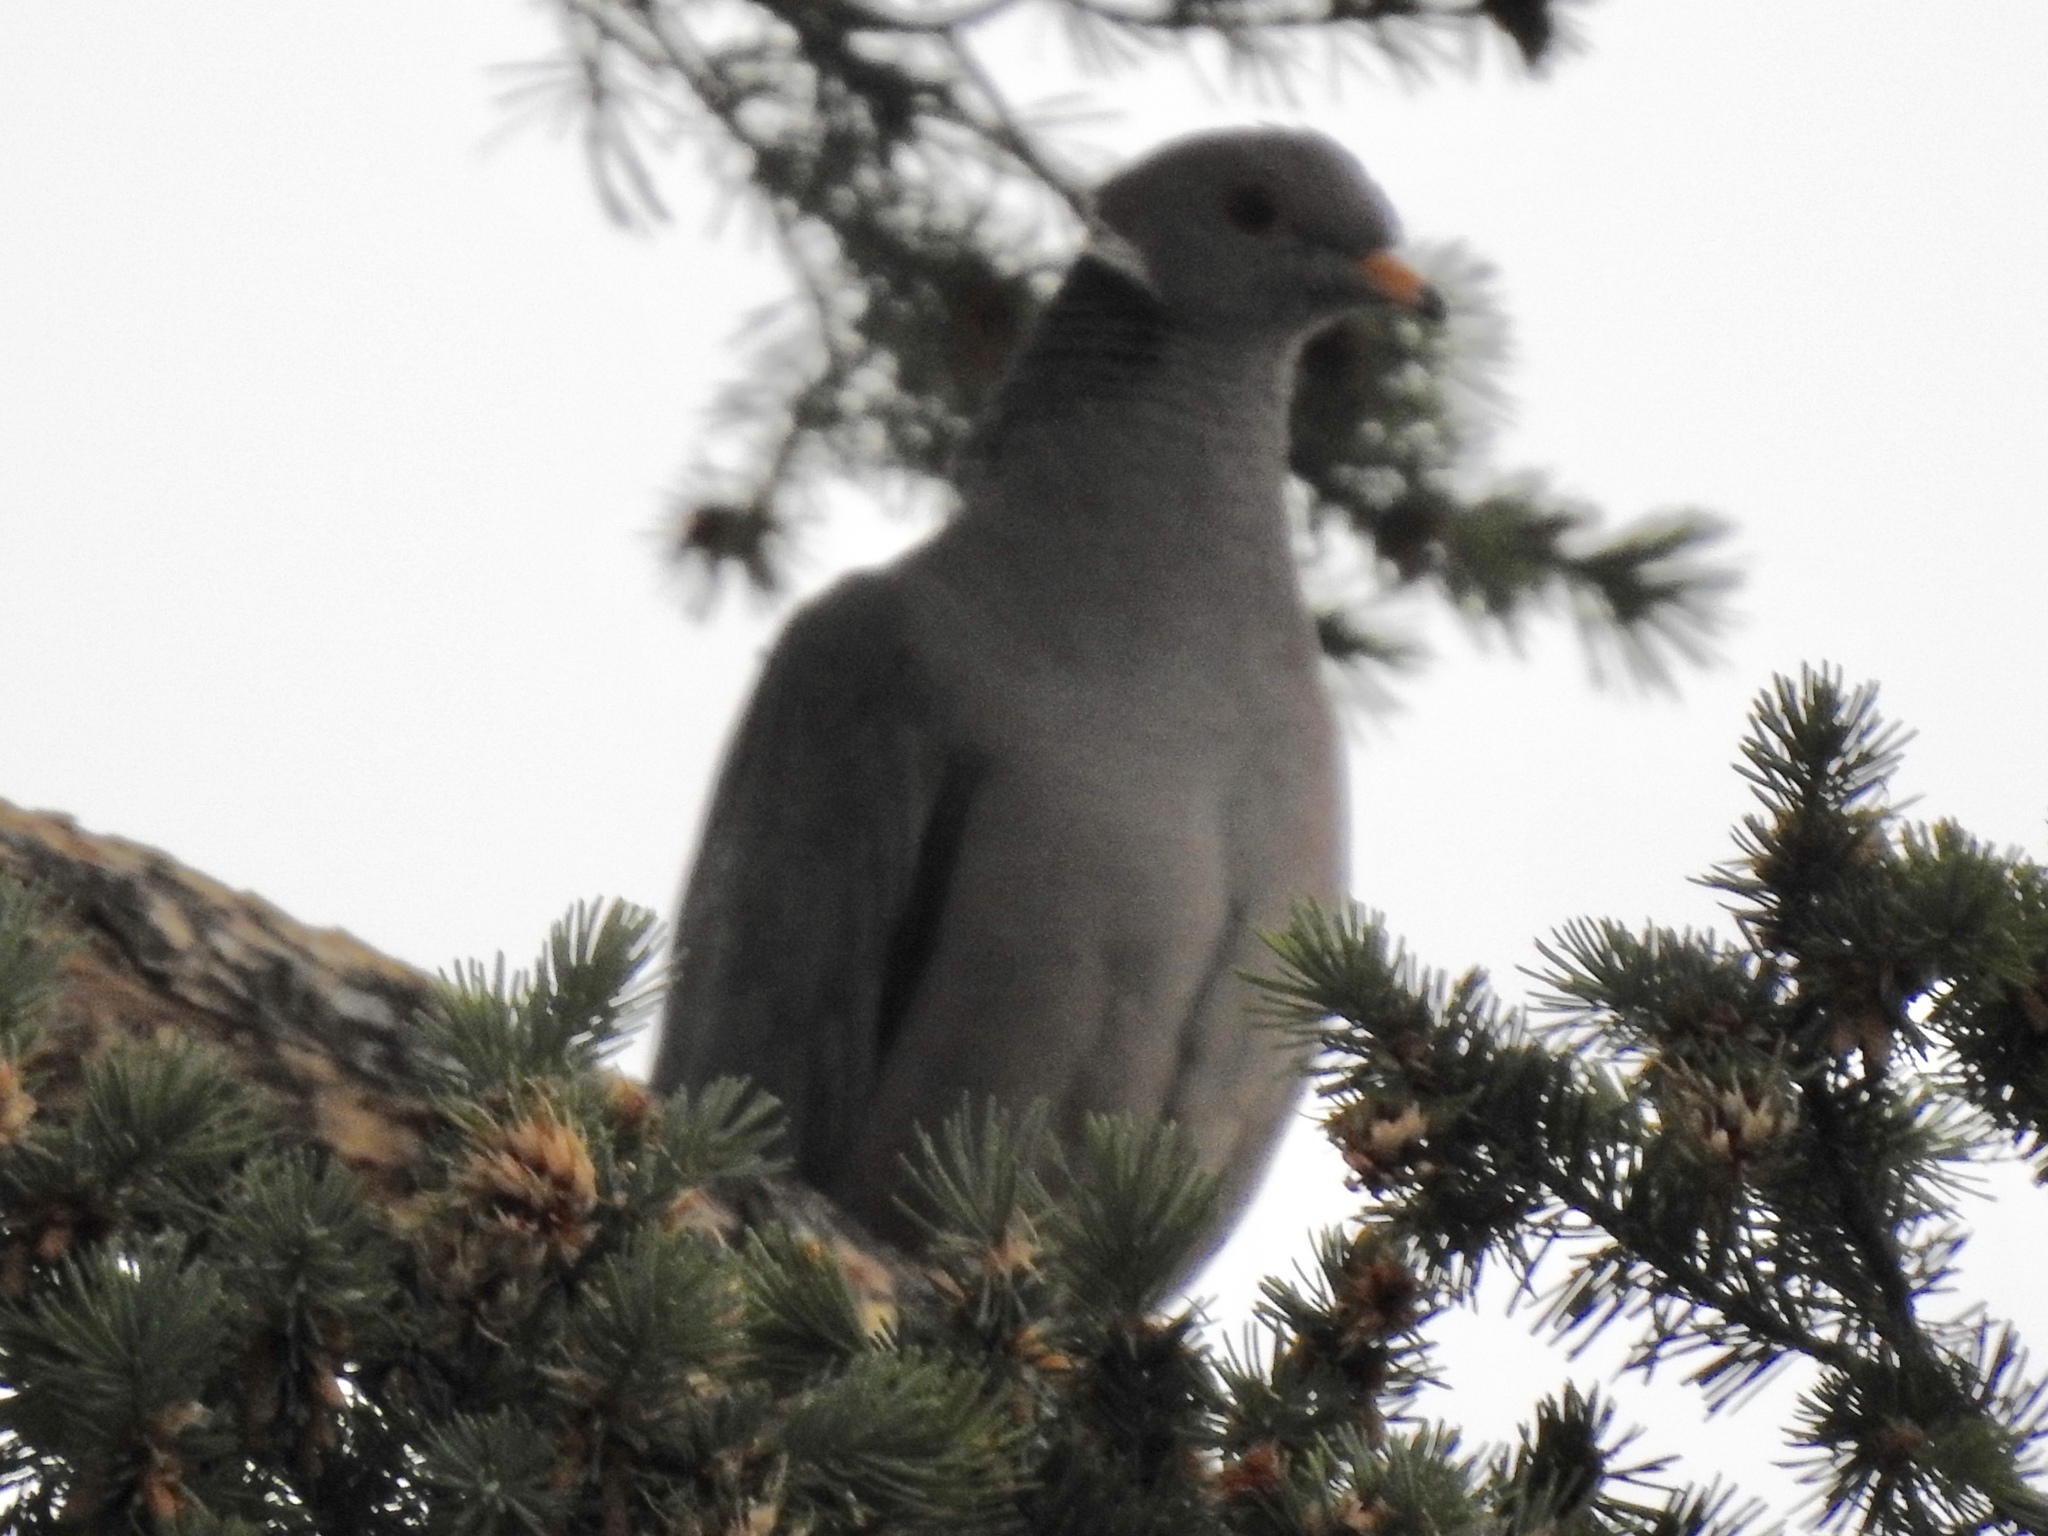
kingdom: Animalia
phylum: Chordata
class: Aves
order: Columbiformes
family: Columbidae
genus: Patagioenas
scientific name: Patagioenas fasciata
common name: Band-tailed pigeon
